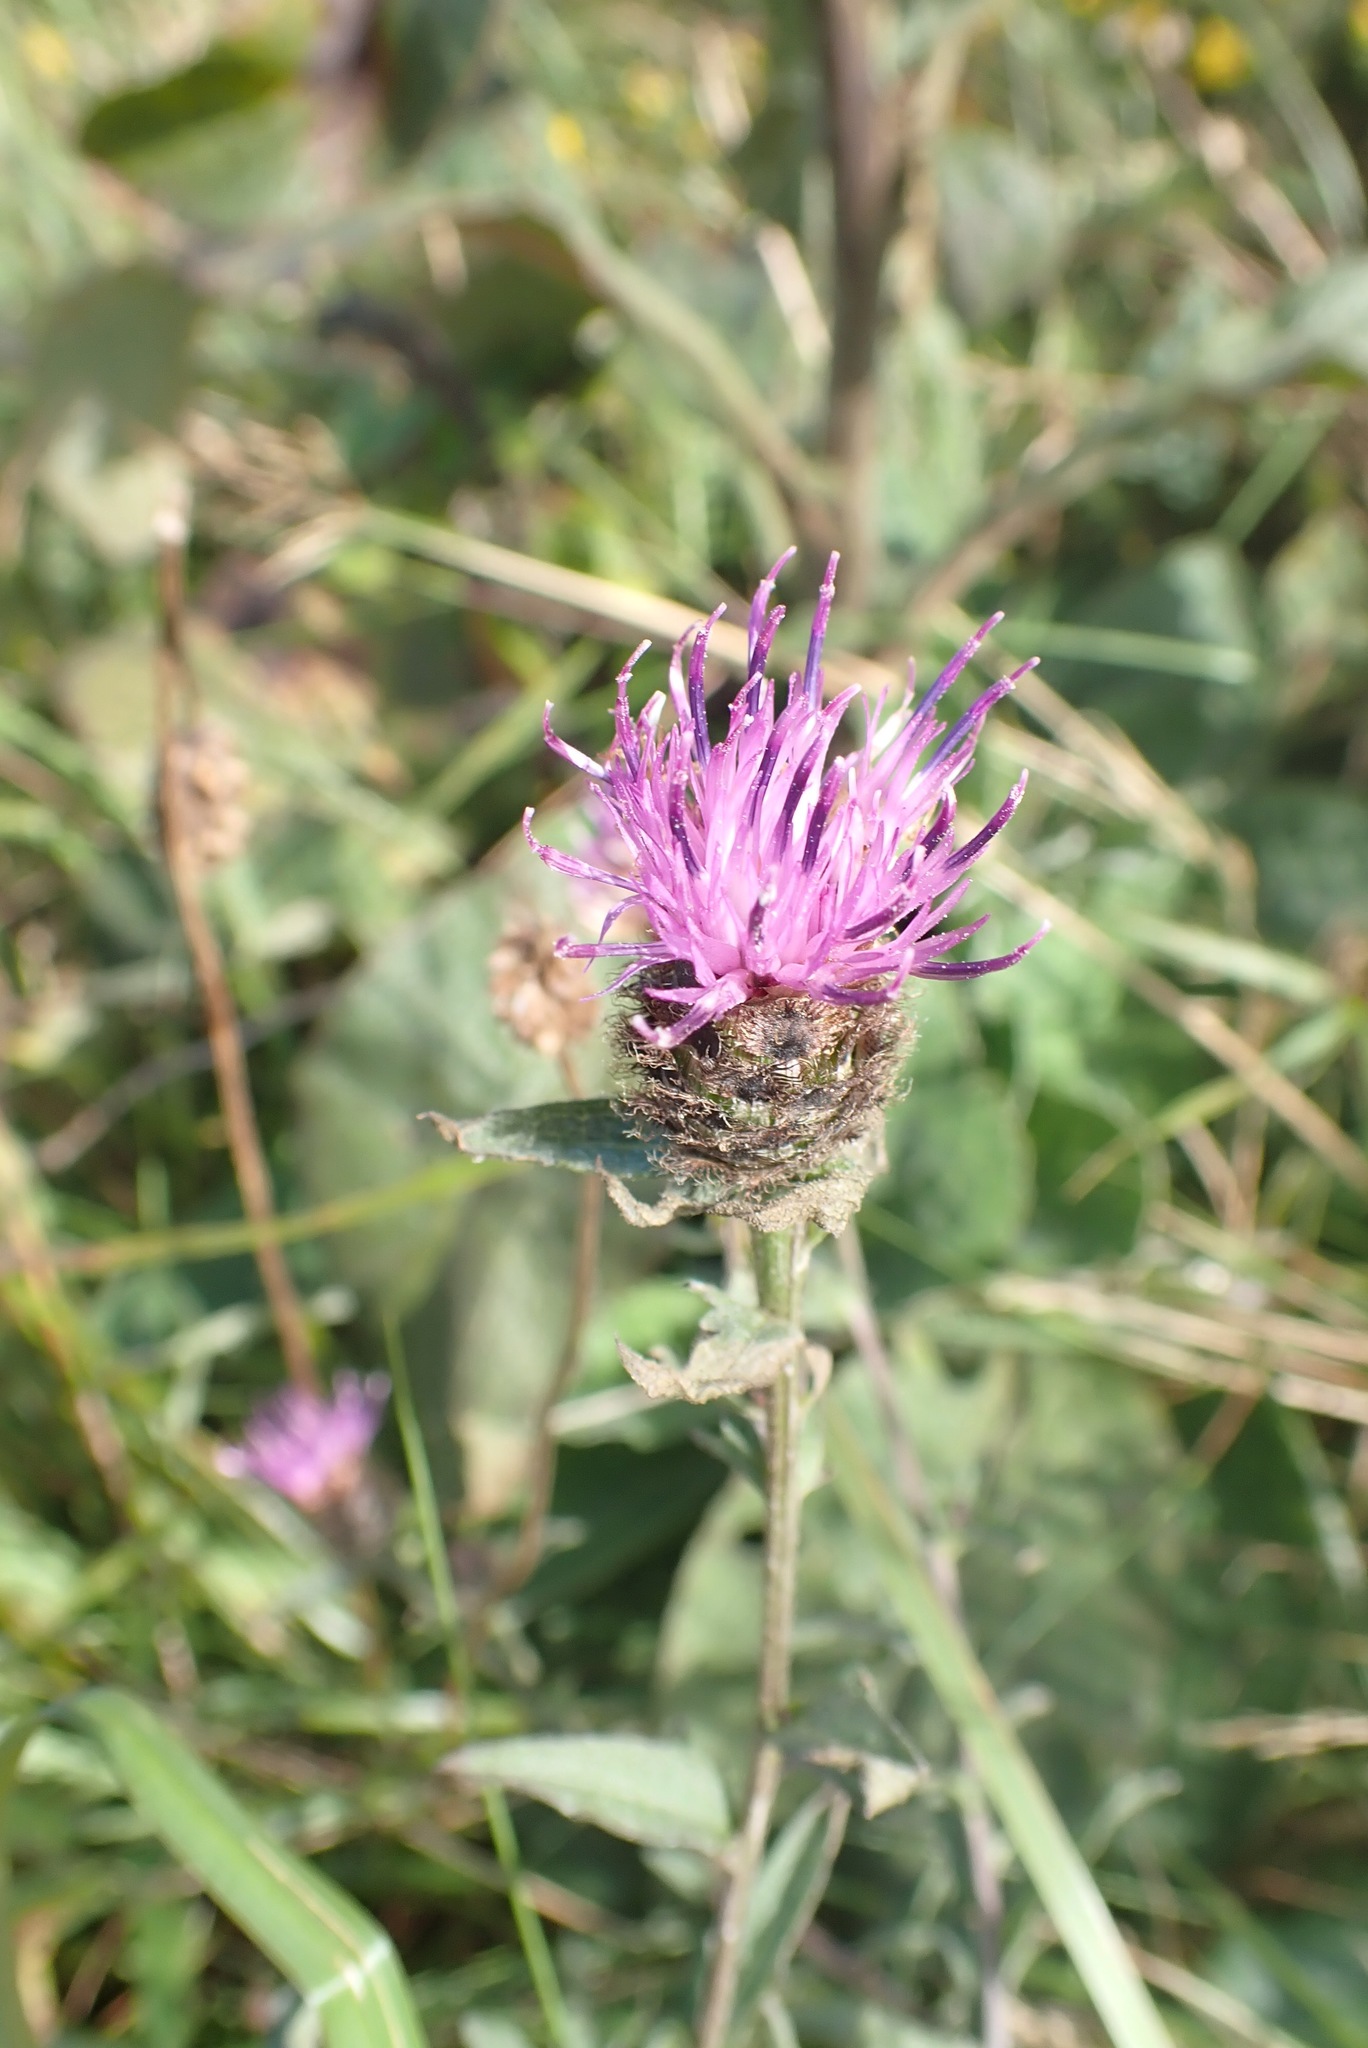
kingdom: Plantae
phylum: Tracheophyta
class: Magnoliopsida
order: Asterales
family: Asteraceae
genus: Centaurea
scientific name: Centaurea nigra
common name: Lesser knapweed
